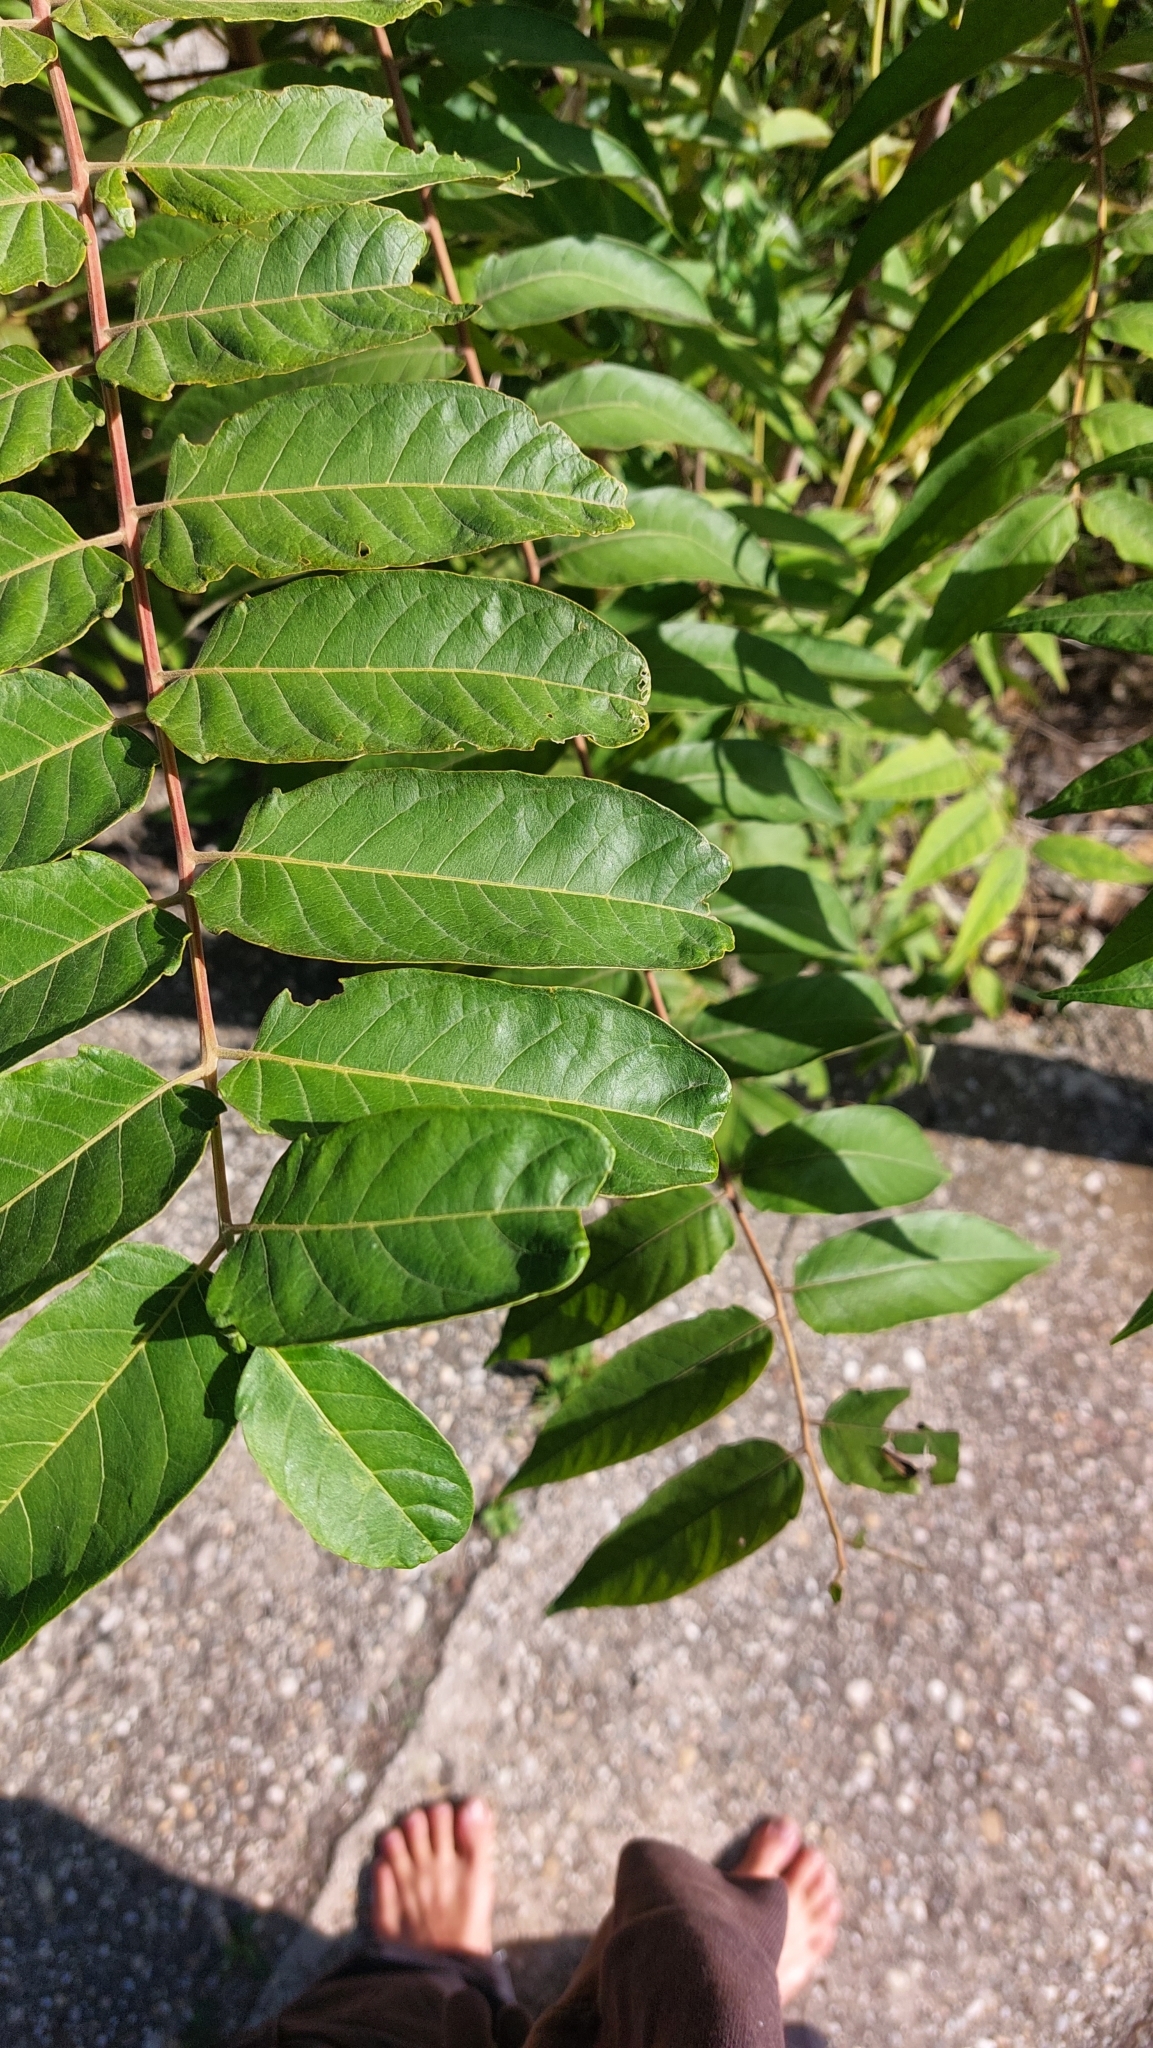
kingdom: Plantae
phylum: Tracheophyta
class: Magnoliopsida
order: Sapindales
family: Simaroubaceae
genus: Ailanthus
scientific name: Ailanthus altissima
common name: Tree-of-heaven
